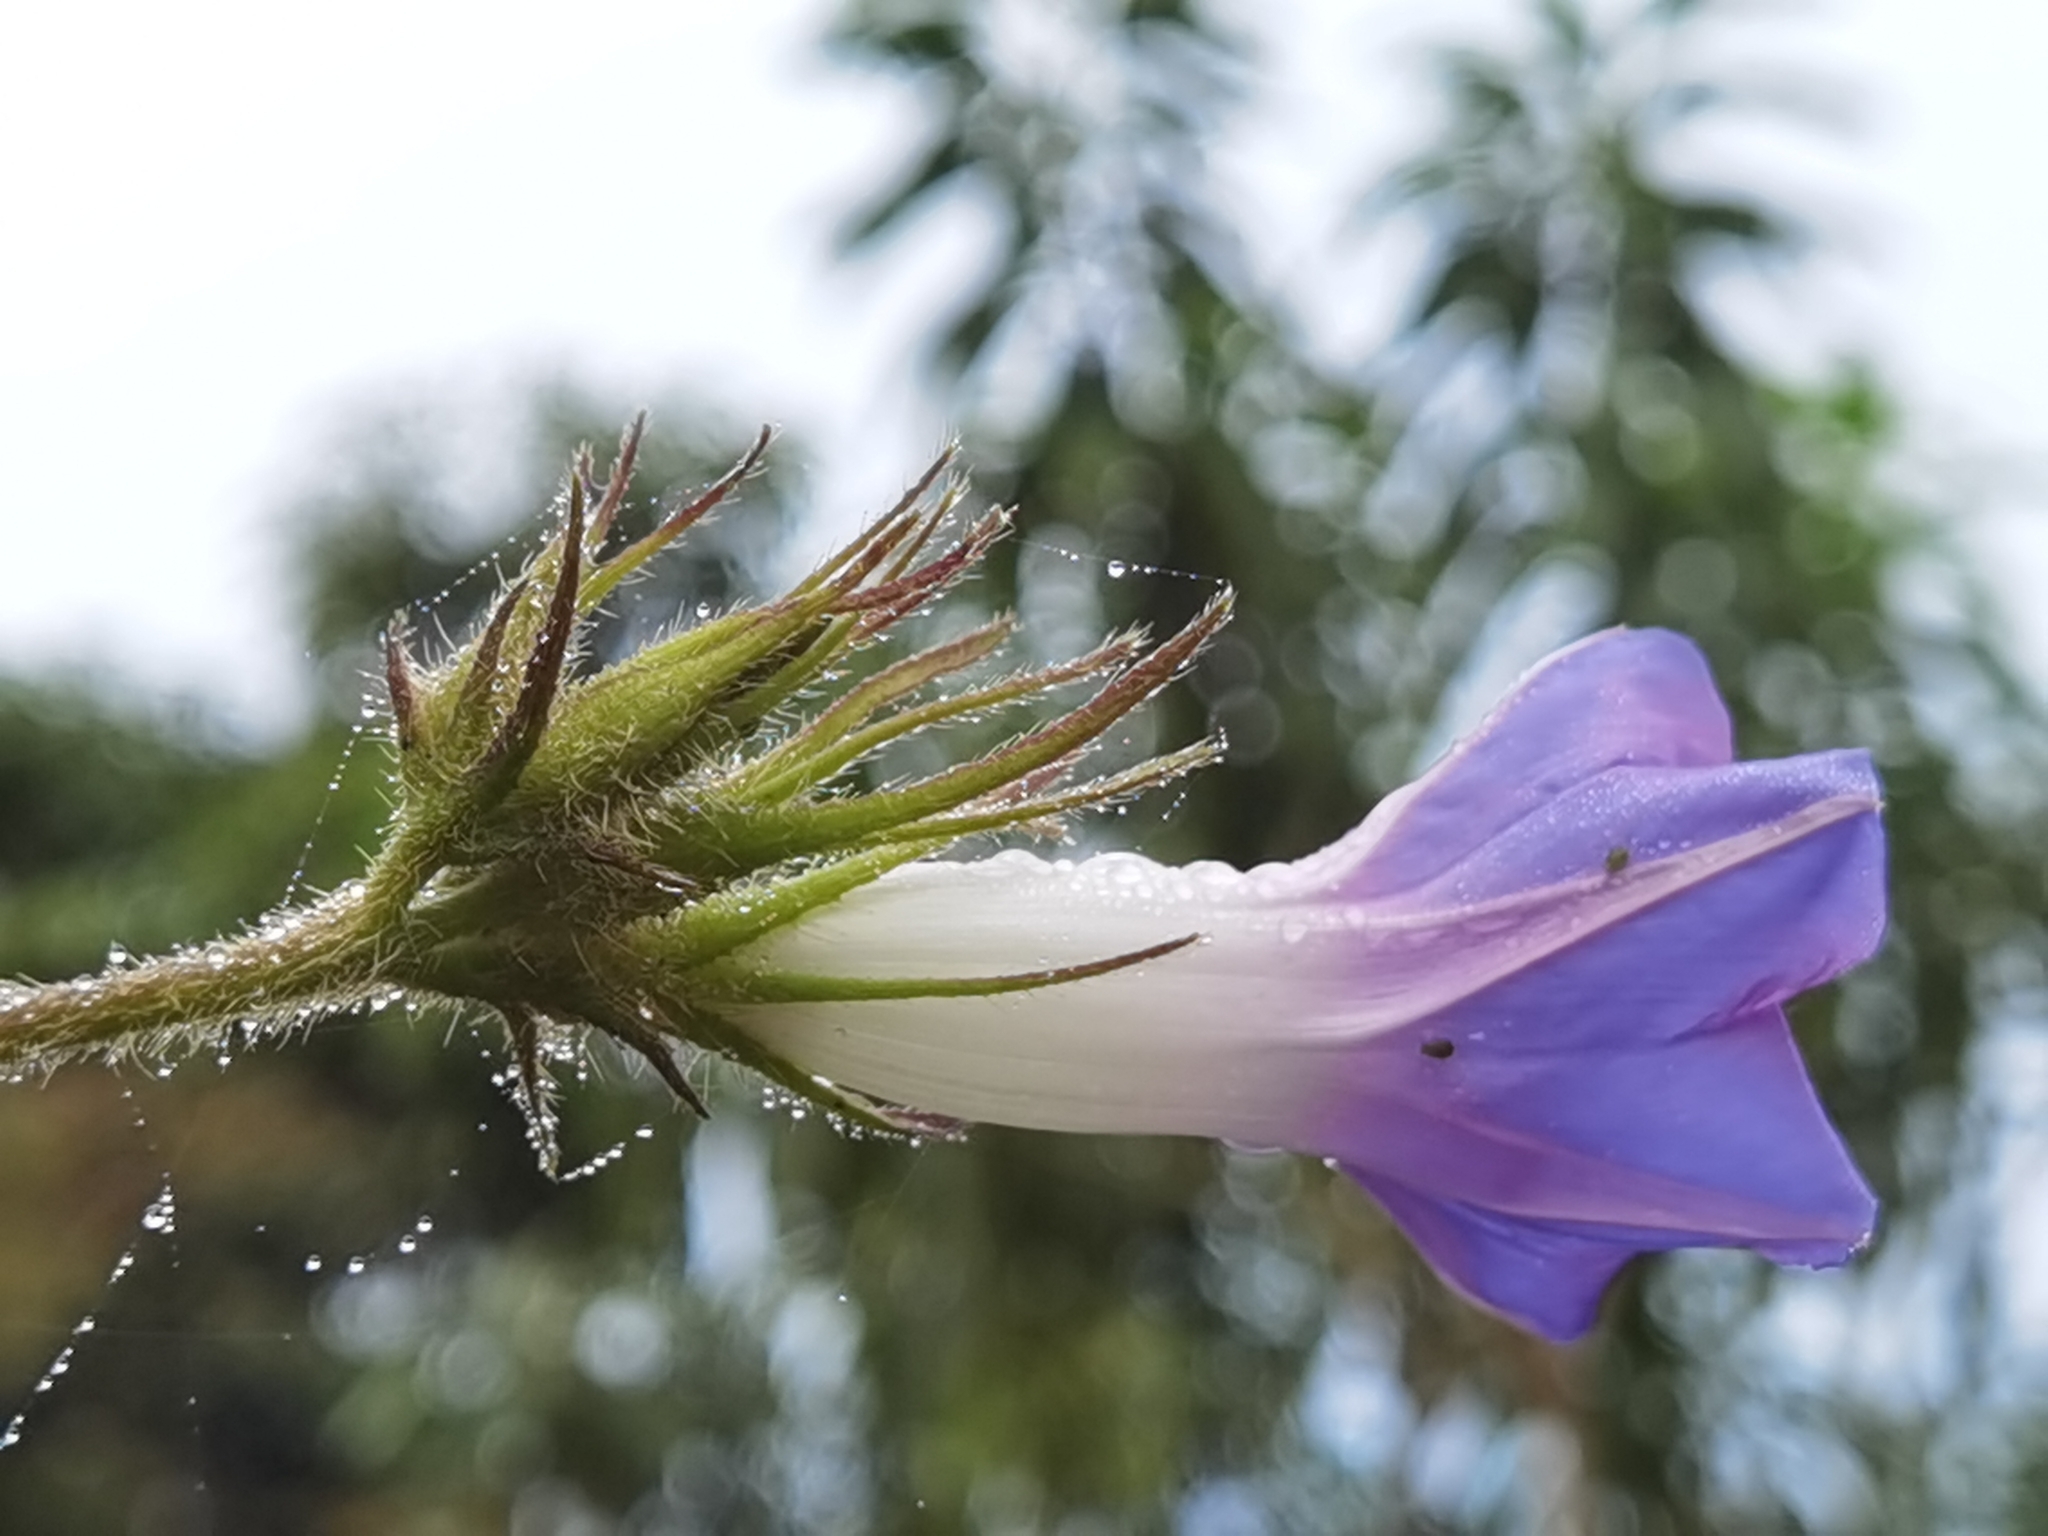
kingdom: Plantae
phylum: Tracheophyta
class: Magnoliopsida
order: Solanales
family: Convolvulaceae
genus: Ipomoea
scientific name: Ipomoea nil
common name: Japanese morning-glory
